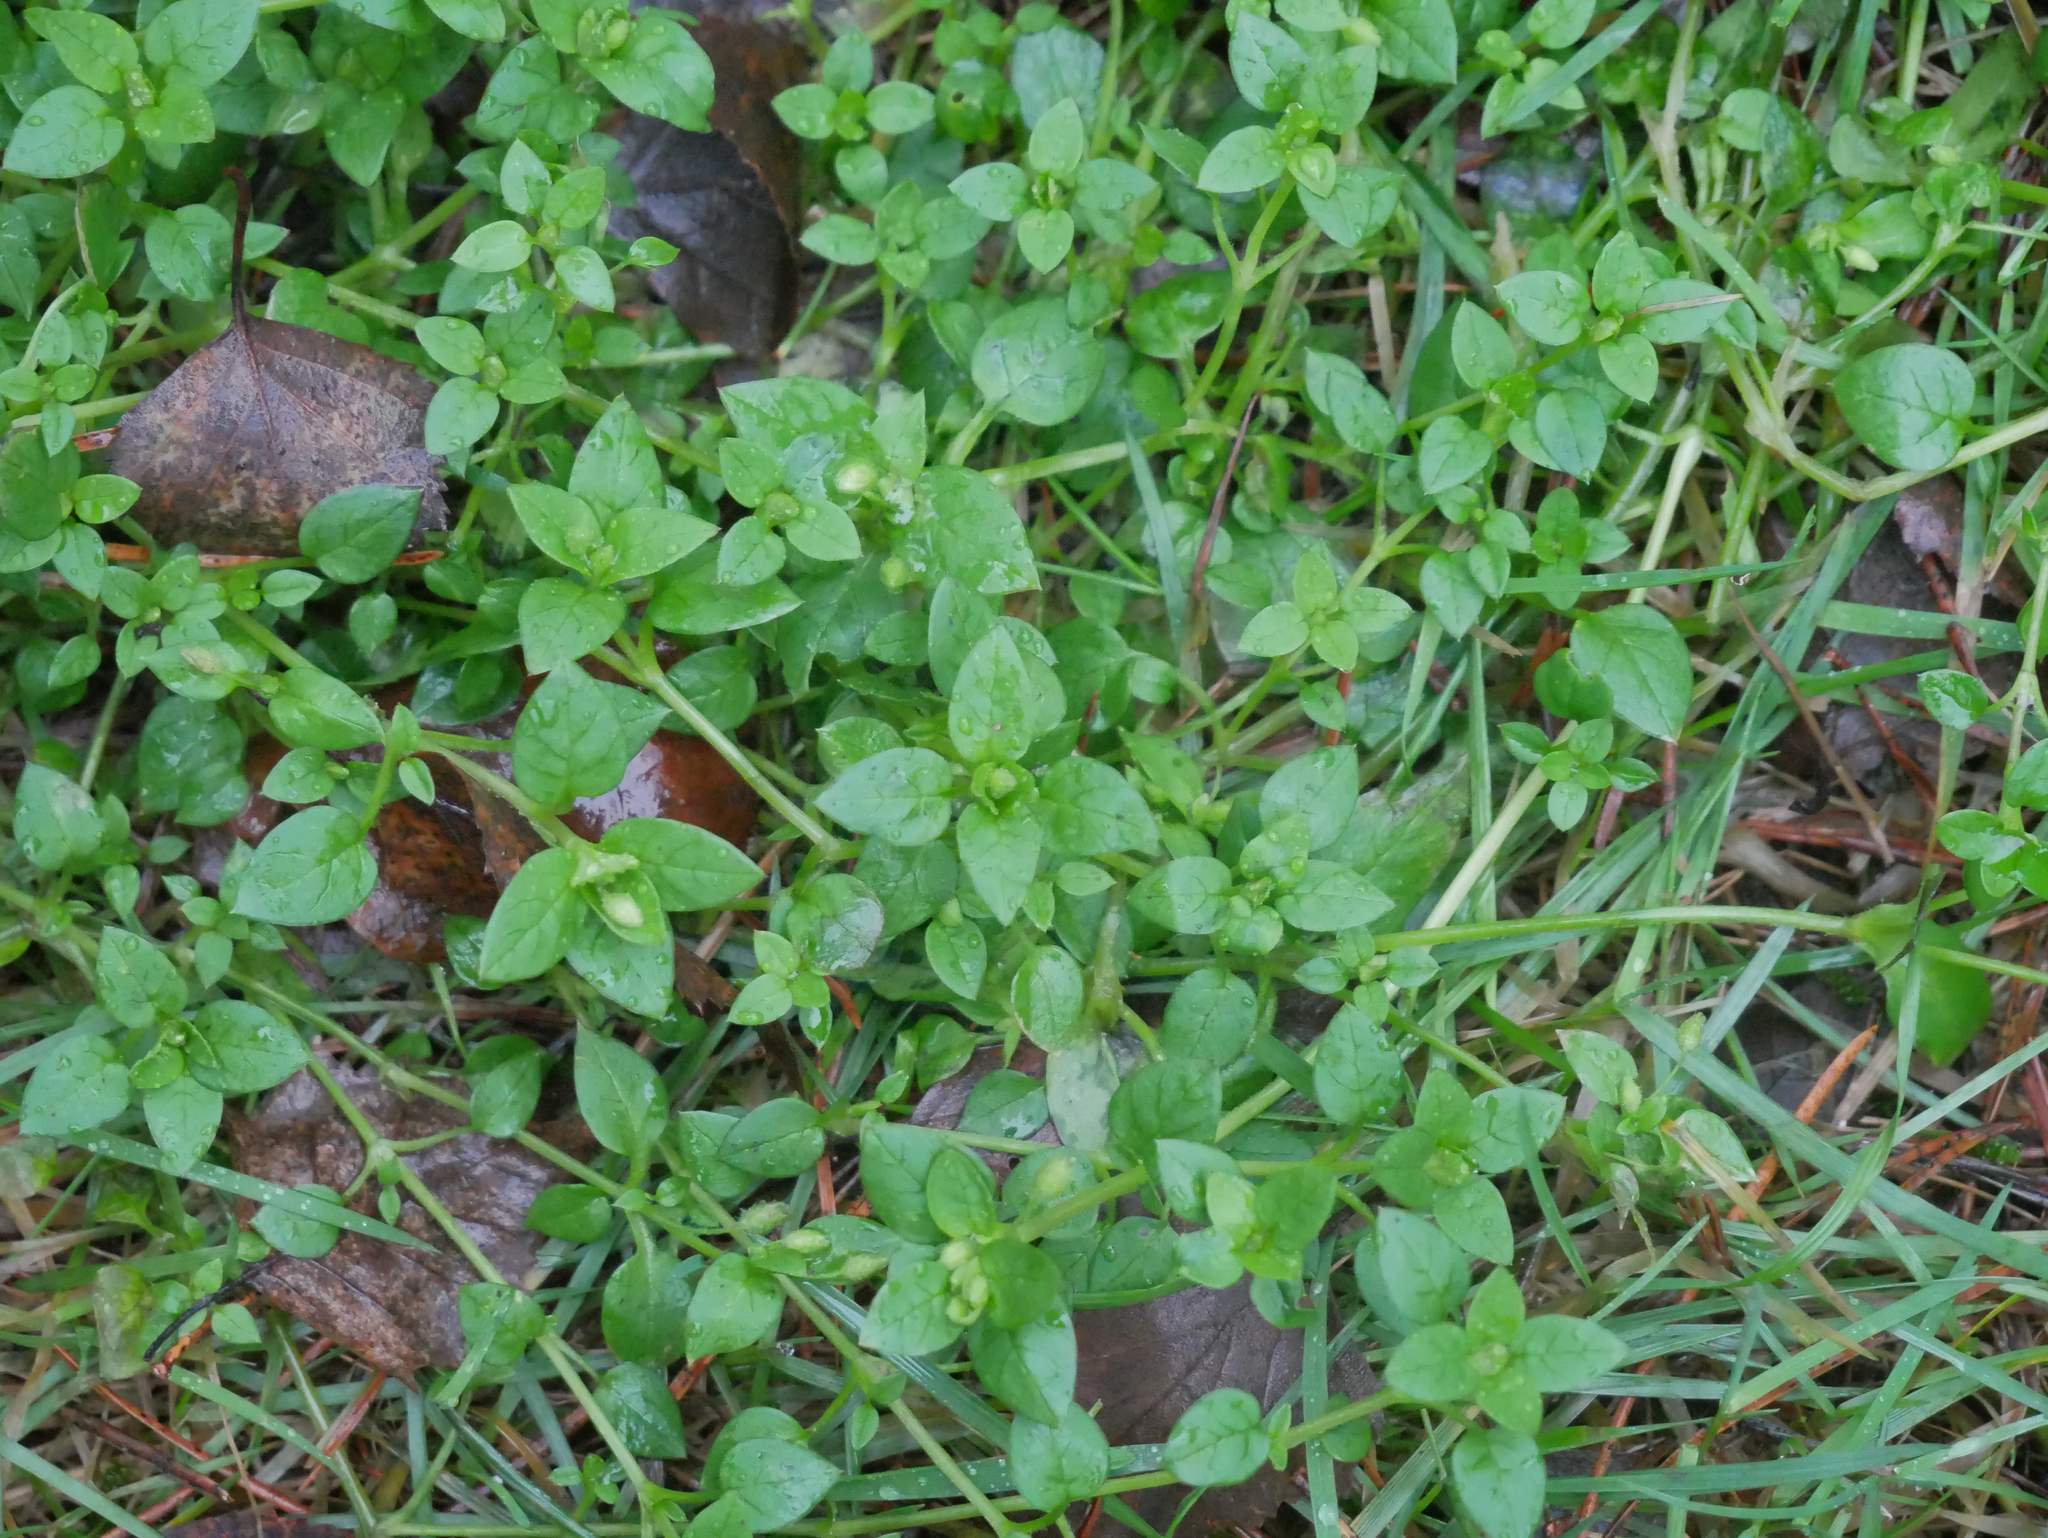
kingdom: Plantae
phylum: Tracheophyta
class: Magnoliopsida
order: Caryophyllales
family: Caryophyllaceae
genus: Stellaria
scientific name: Stellaria media
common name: Common chickweed
